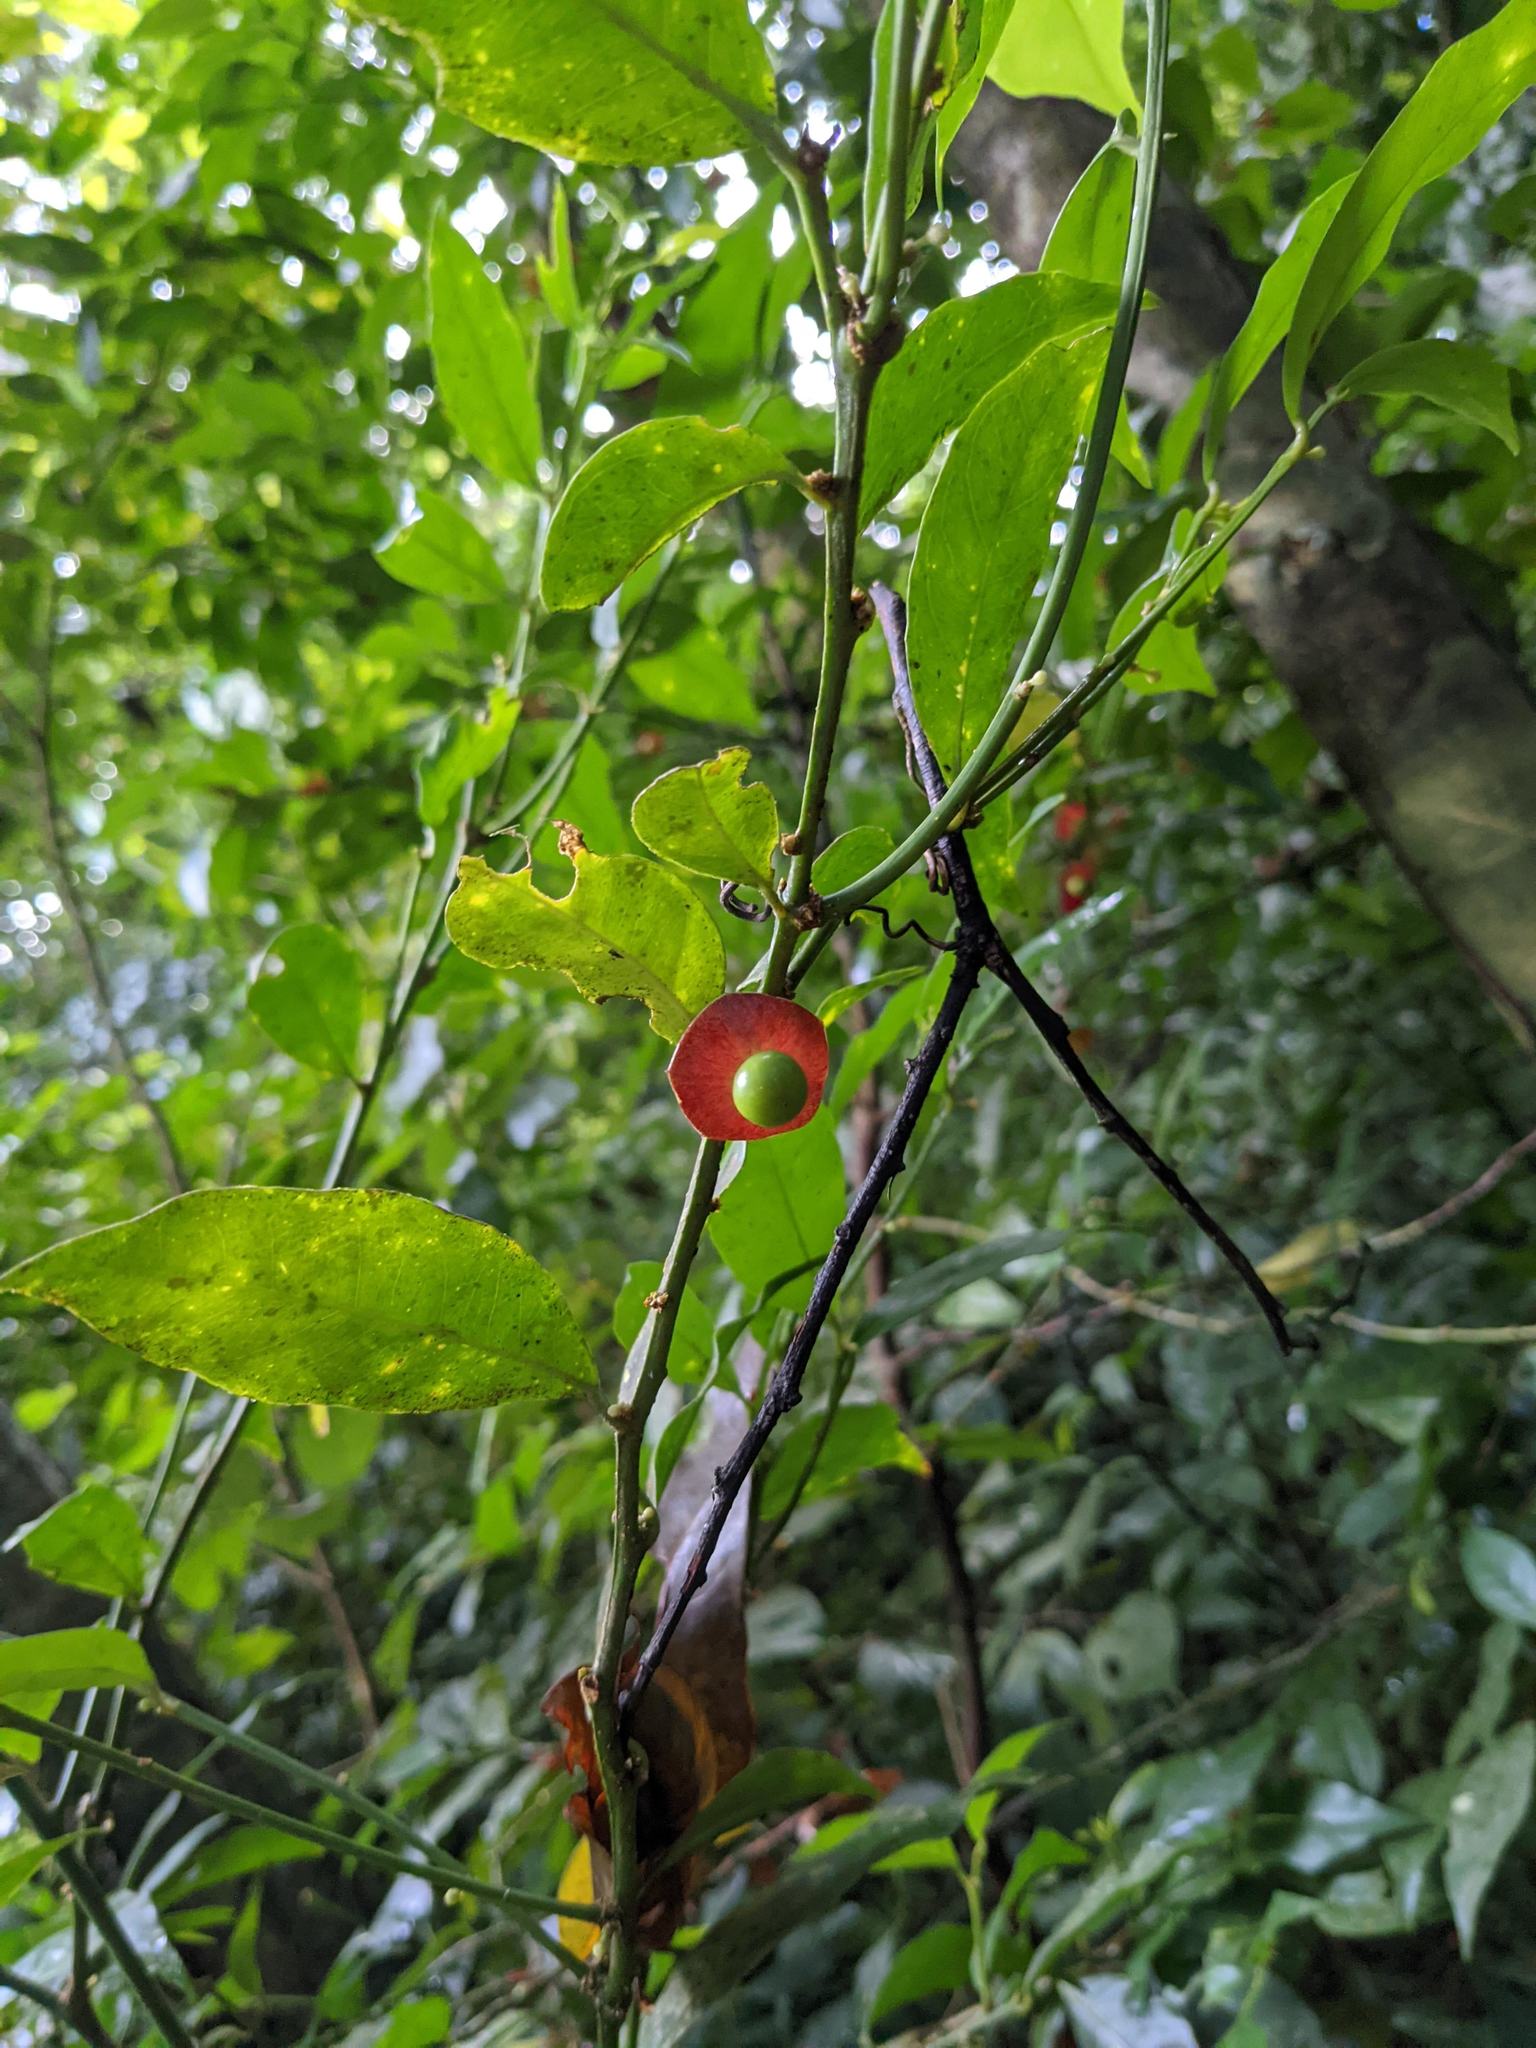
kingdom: Plantae
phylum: Tracheophyta
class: Magnoliopsida
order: Santalales
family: Erythropalaceae
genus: Heisteria
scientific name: Heisteria povedae
